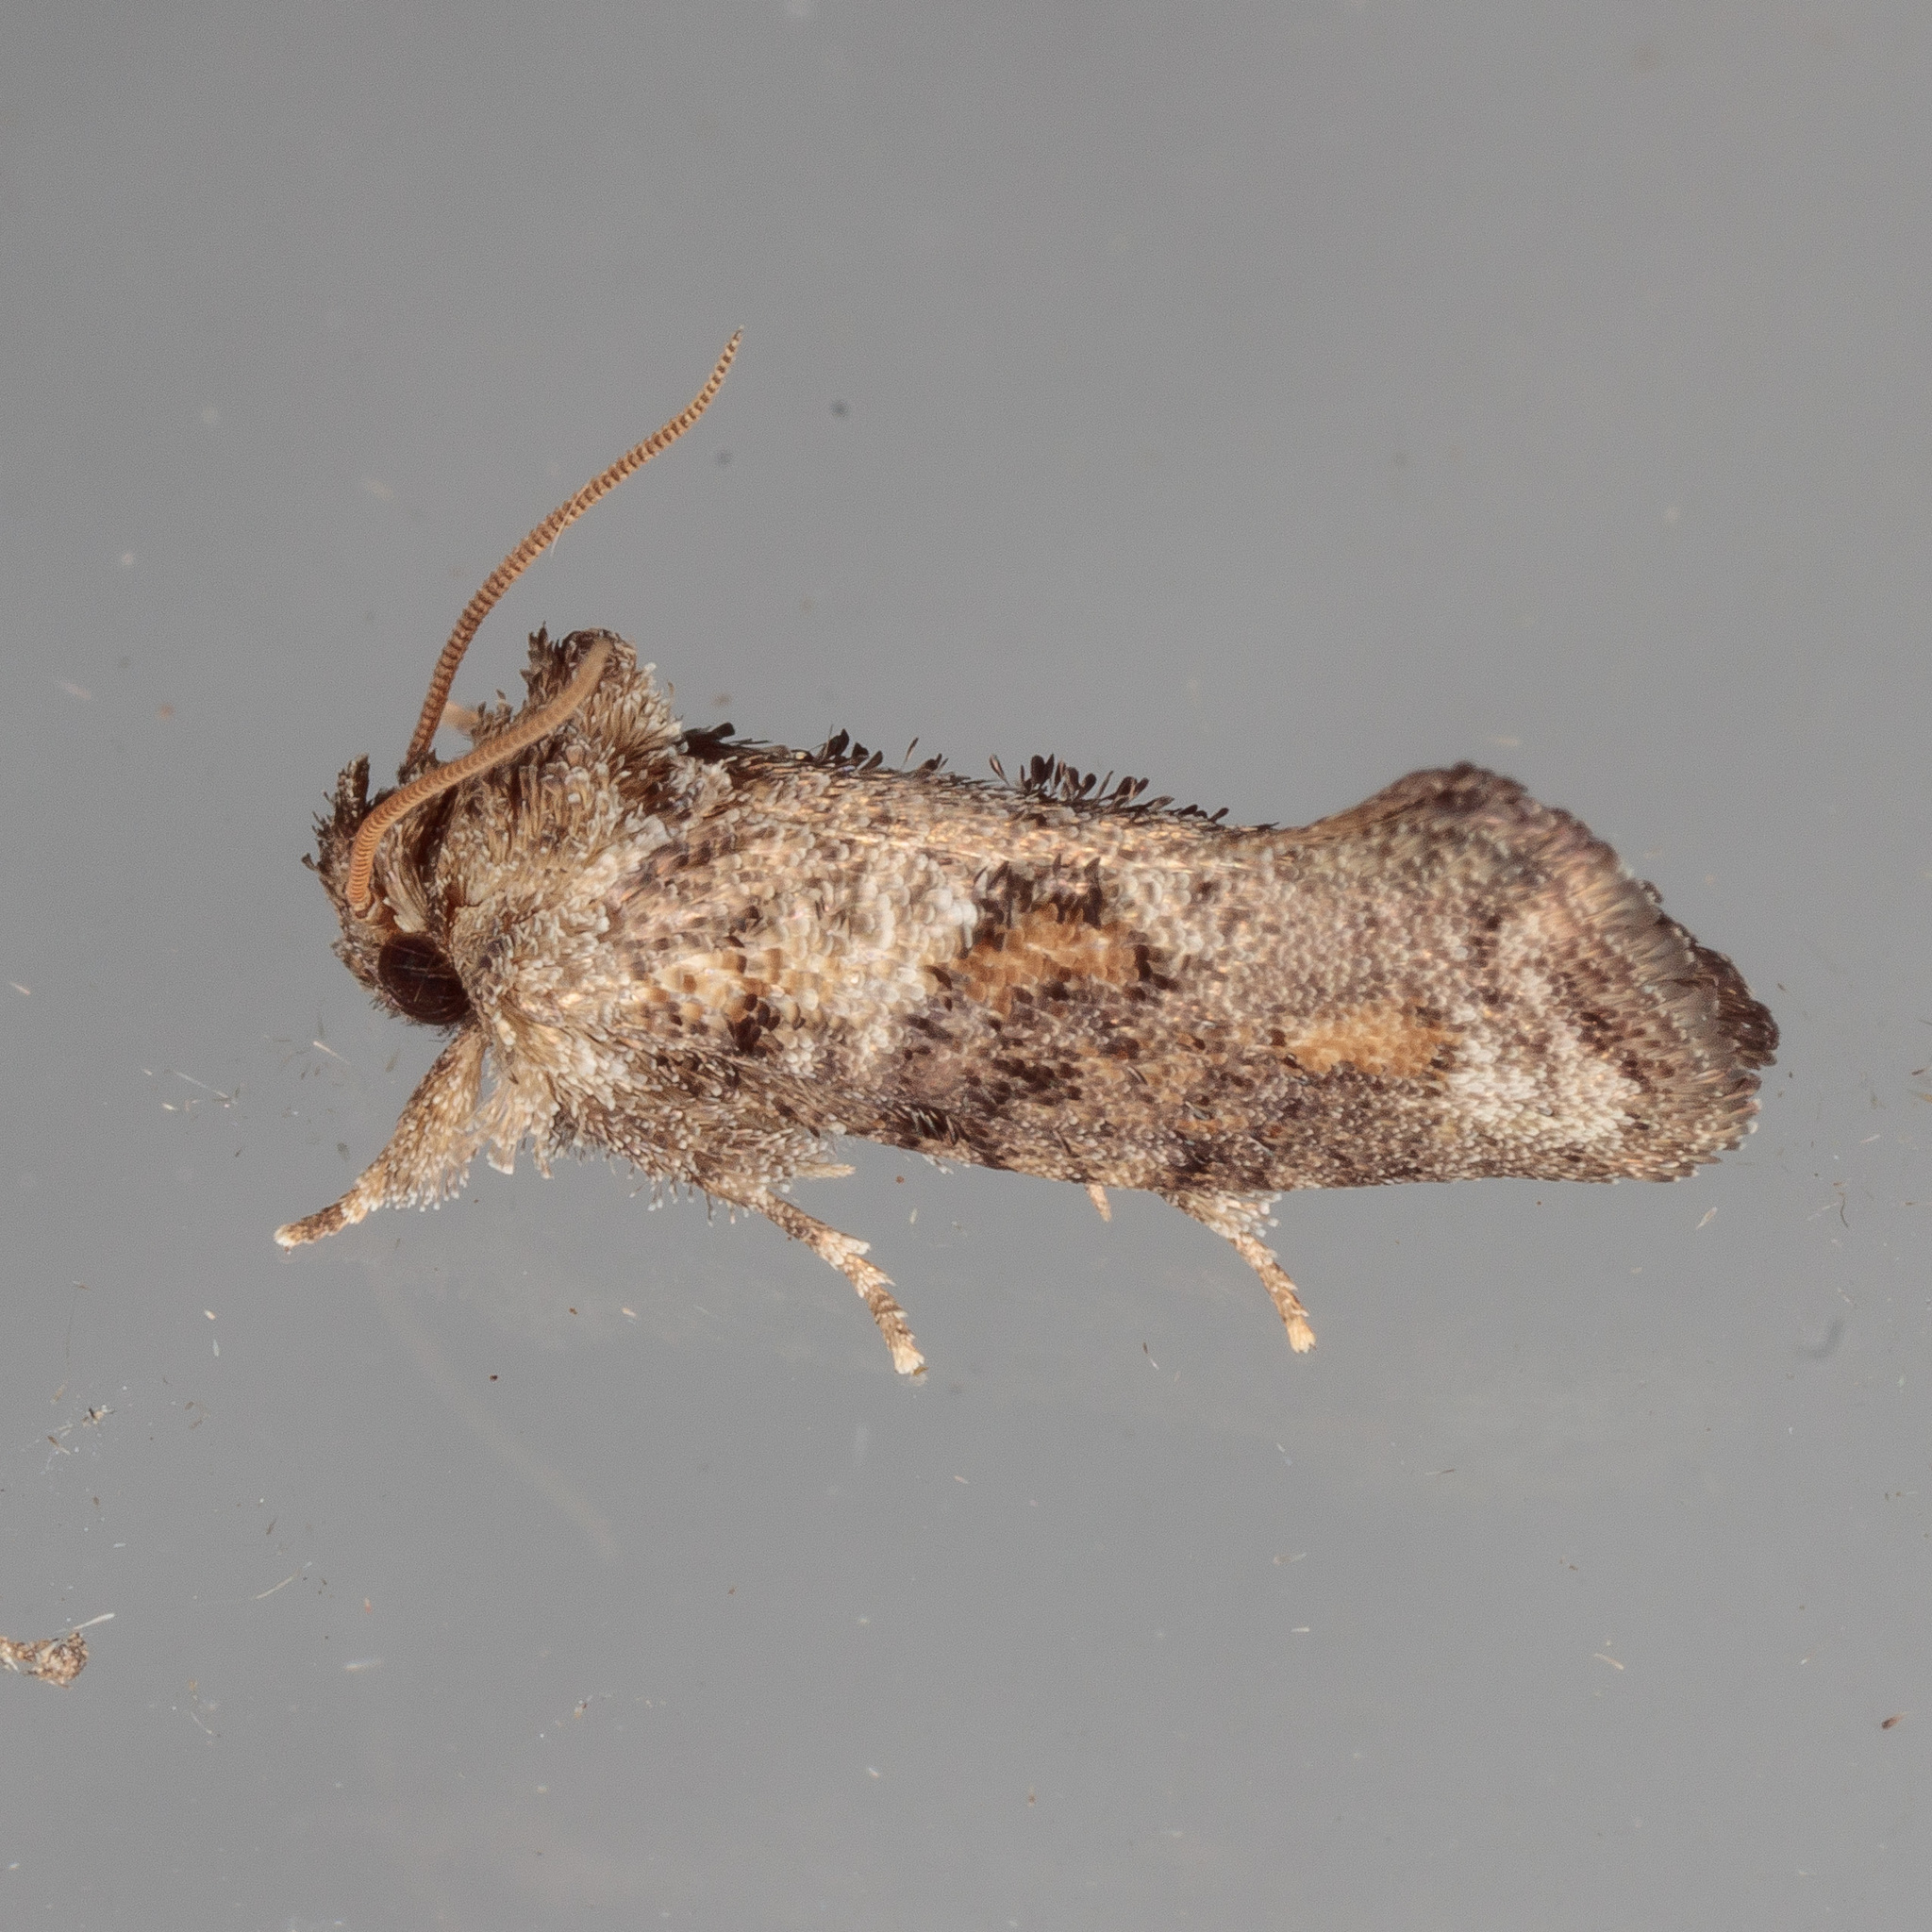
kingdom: Animalia
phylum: Arthropoda
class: Insecta
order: Lepidoptera
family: Tineidae
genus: Acrolophus
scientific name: Acrolophus piger
